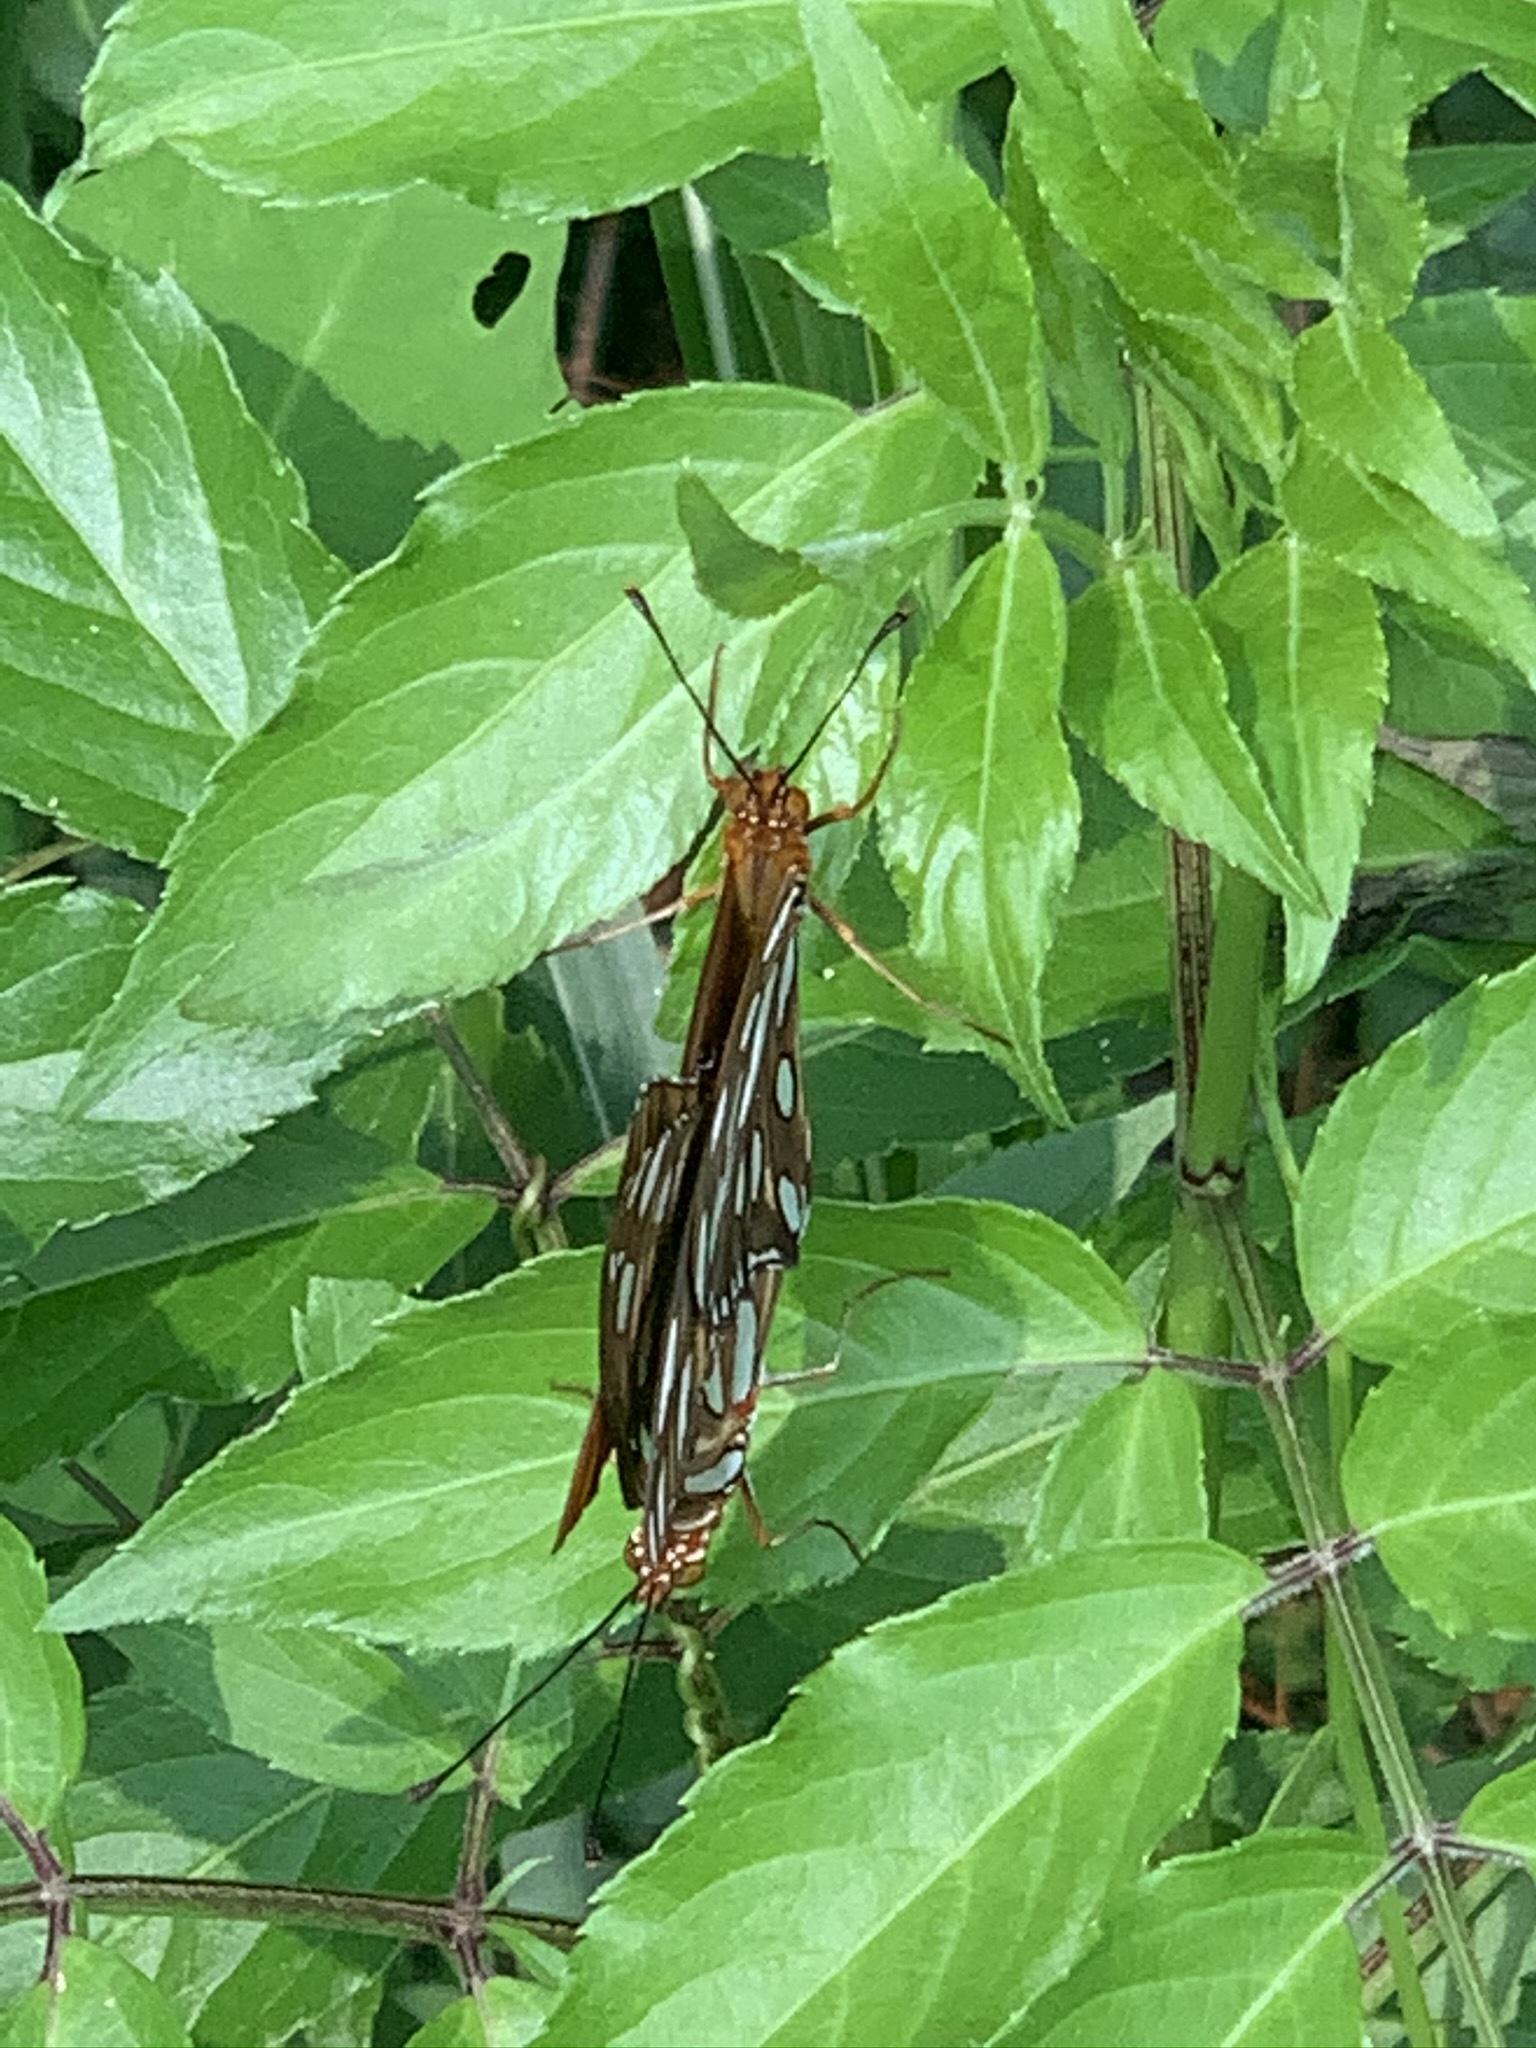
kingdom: Animalia
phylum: Arthropoda
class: Insecta
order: Lepidoptera
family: Nymphalidae
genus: Dione
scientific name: Dione vanillae
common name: Gulf fritillary
